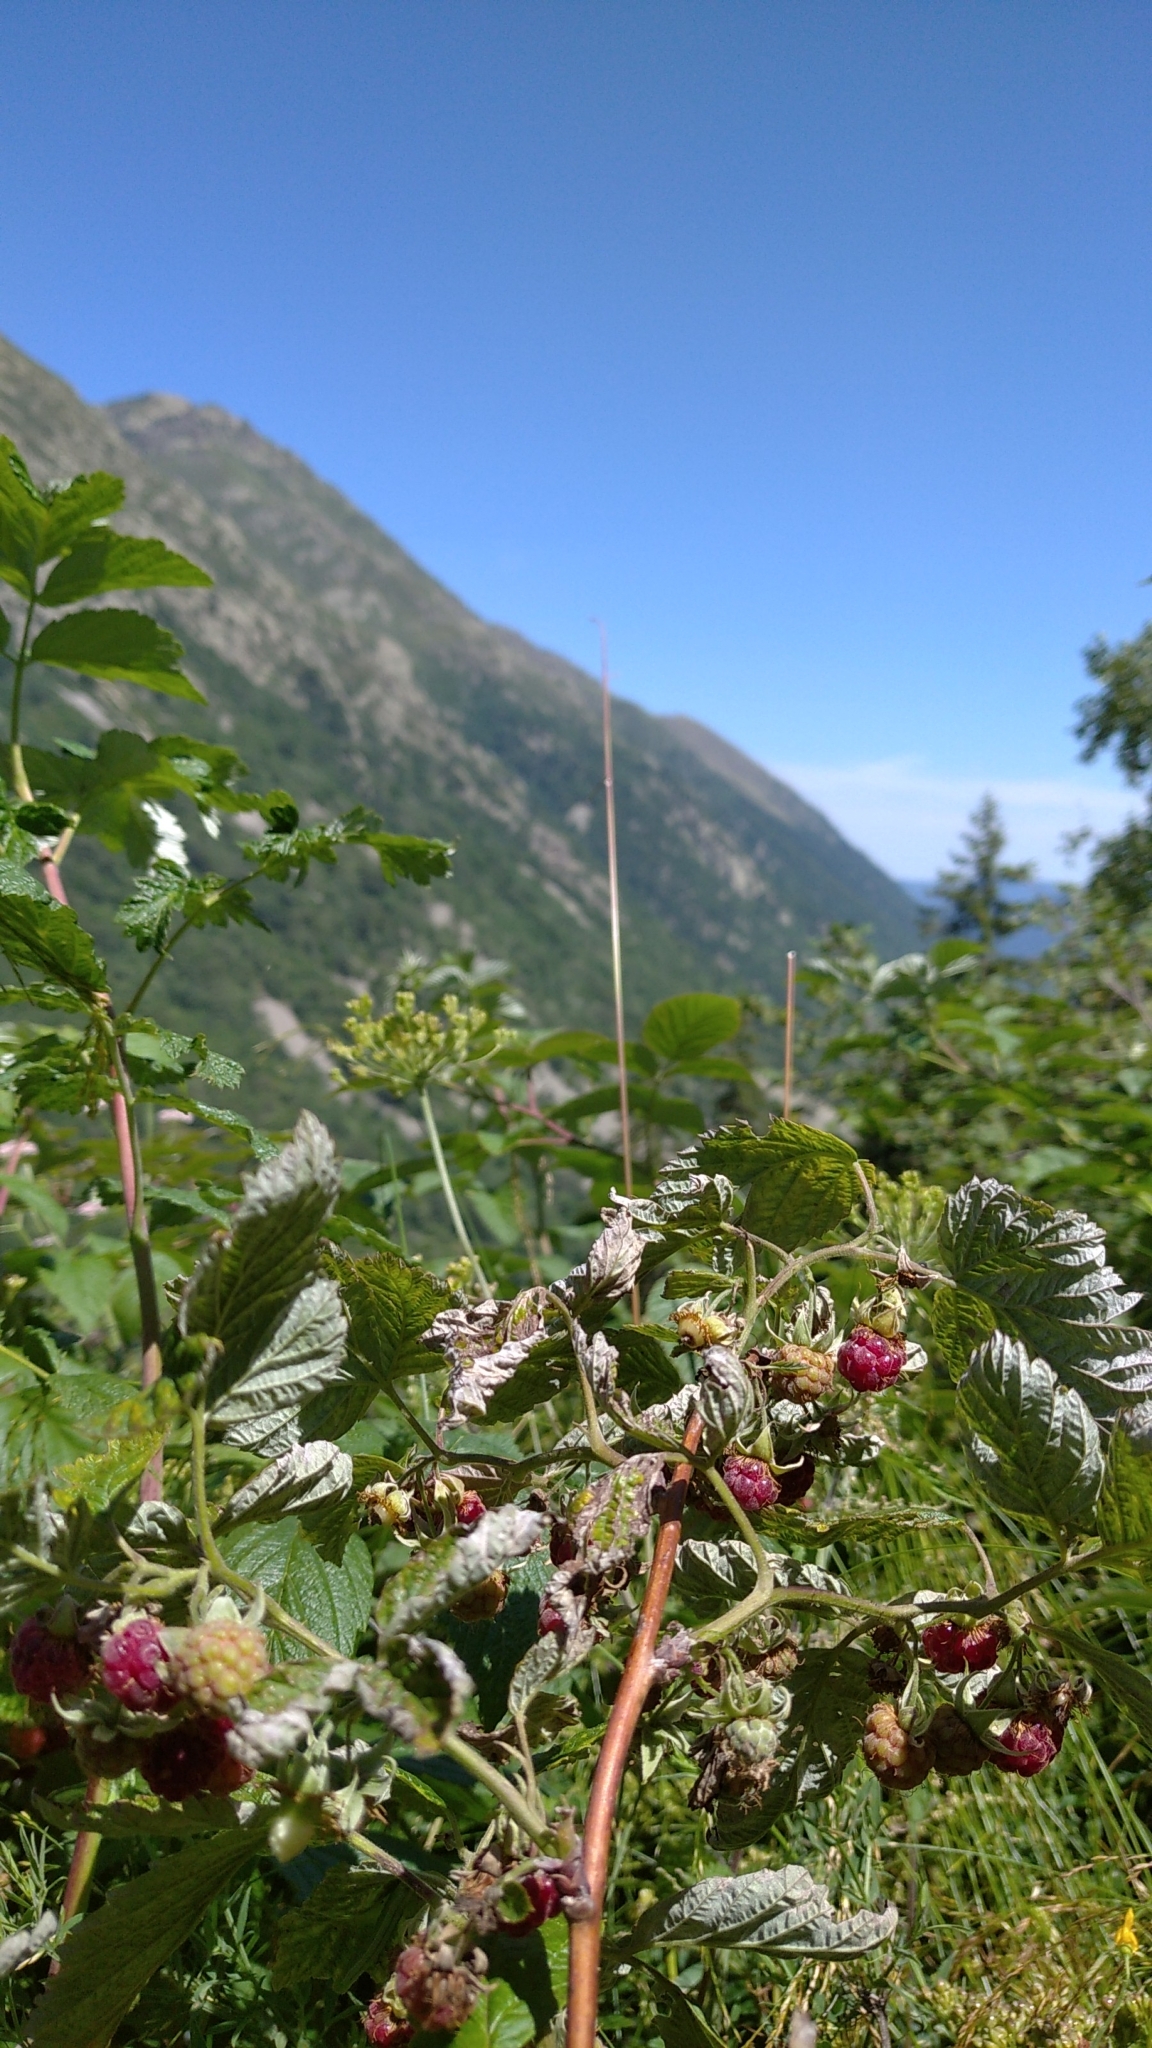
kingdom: Plantae
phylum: Tracheophyta
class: Magnoliopsida
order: Rosales
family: Rosaceae
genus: Rubus
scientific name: Rubus idaeus
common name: Raspberry
